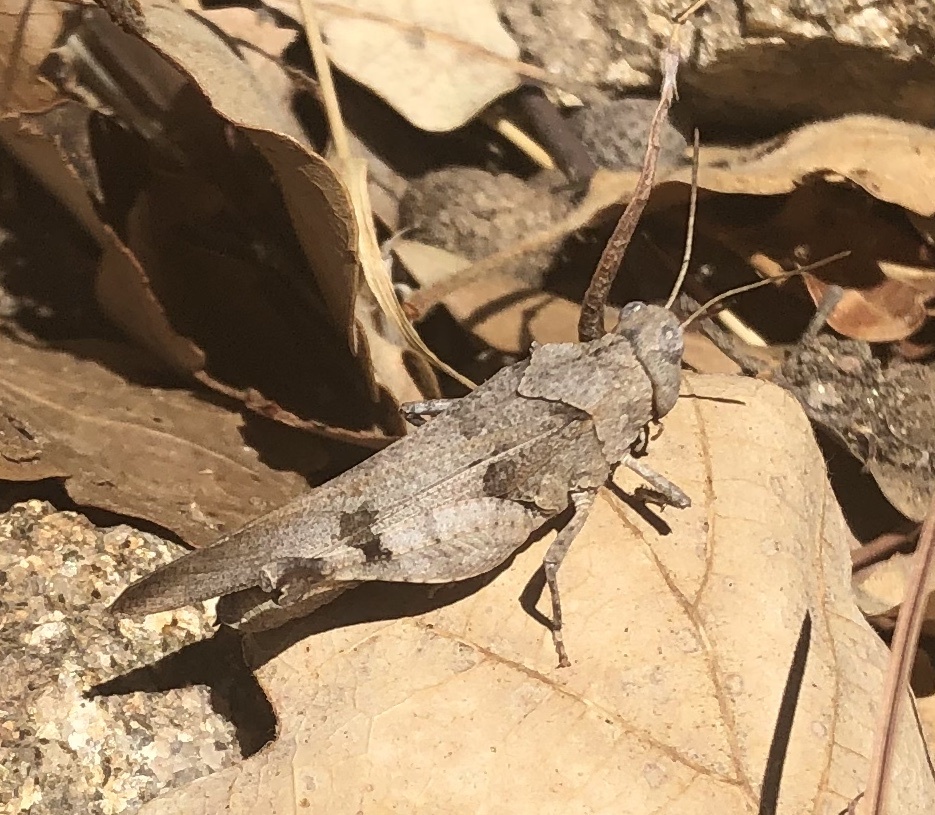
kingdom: Animalia
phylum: Arthropoda
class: Insecta
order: Orthoptera
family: Acrididae
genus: Oedipoda
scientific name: Oedipoda caerulescens
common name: Blue-winged grasshopper
